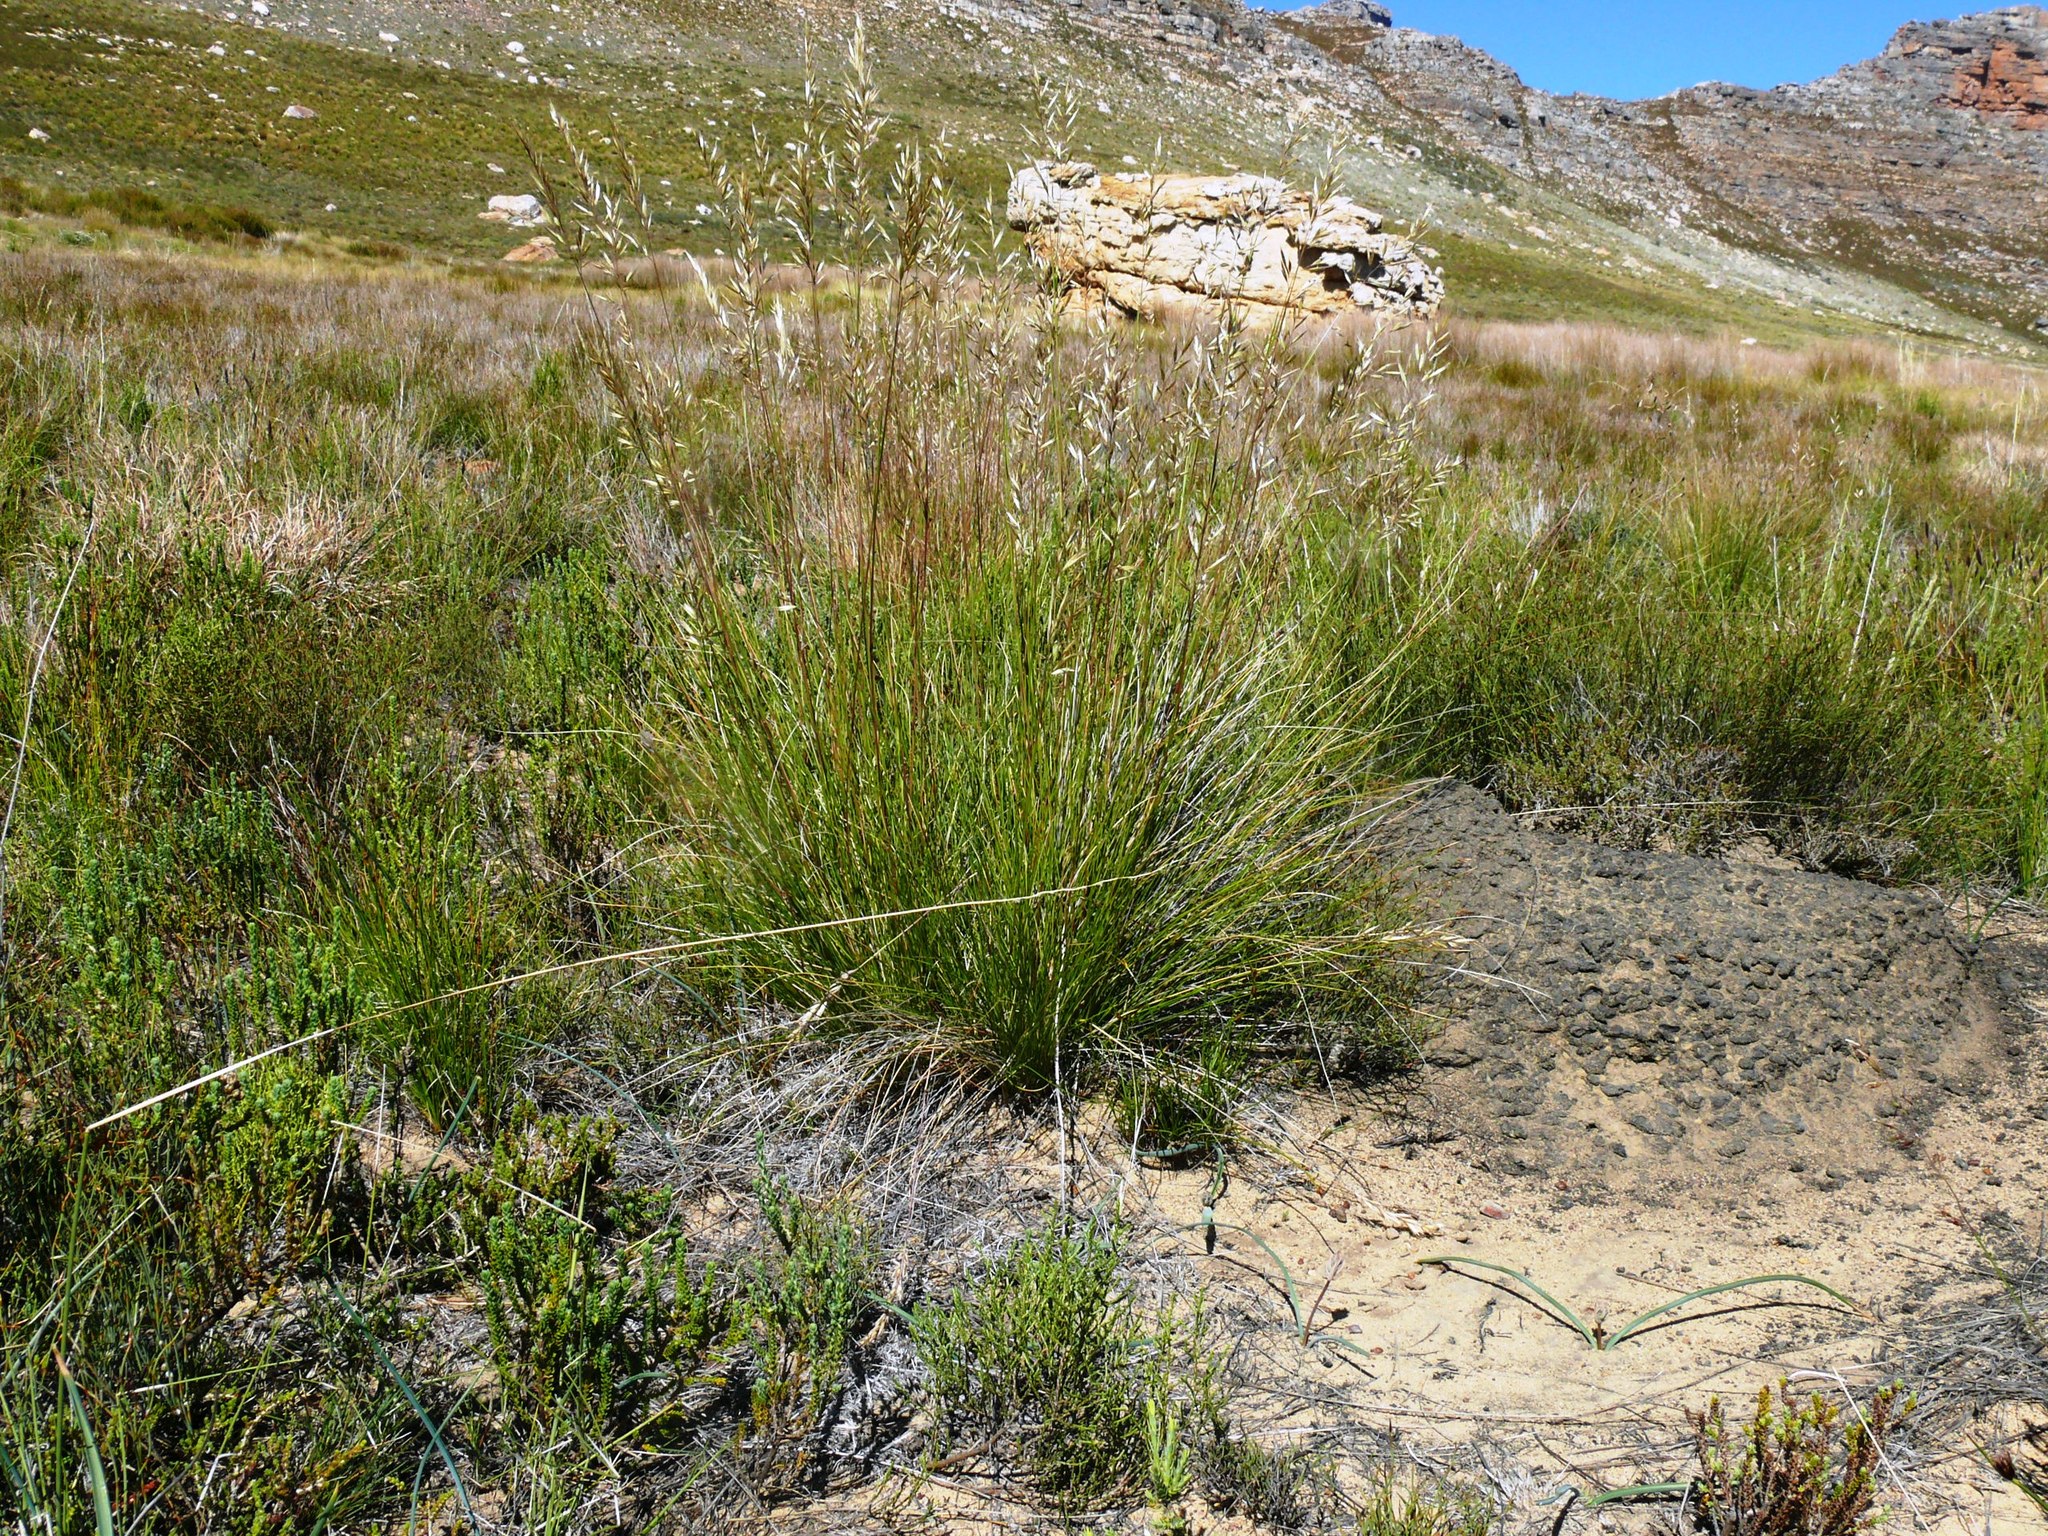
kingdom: Plantae
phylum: Tracheophyta
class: Liliopsida
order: Poales
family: Poaceae
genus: Tenaxia
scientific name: Tenaxia stricta
